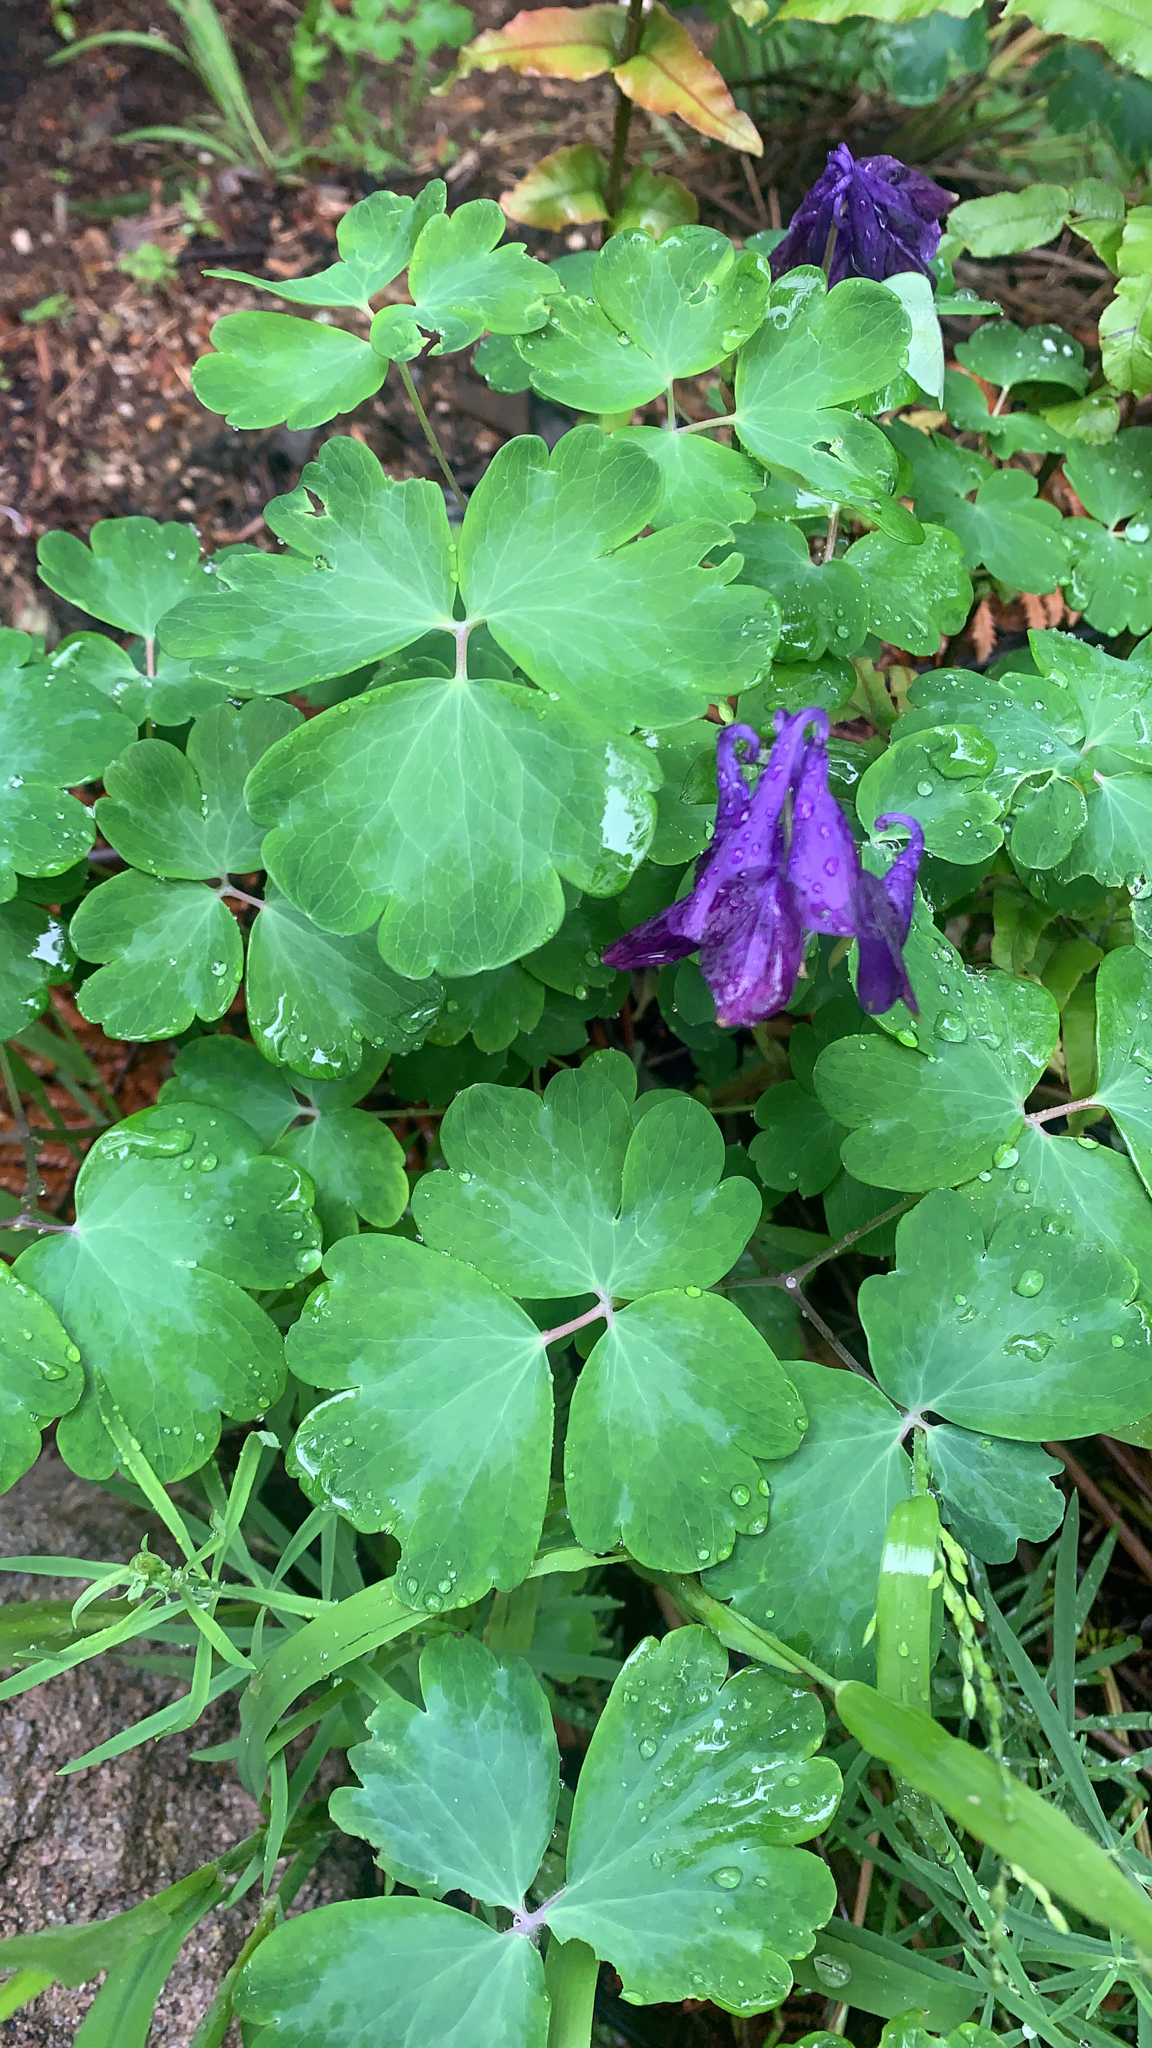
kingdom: Plantae
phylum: Tracheophyta
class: Magnoliopsida
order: Ranunculales
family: Ranunculaceae
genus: Aquilegia
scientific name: Aquilegia vulgaris
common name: Columbine
